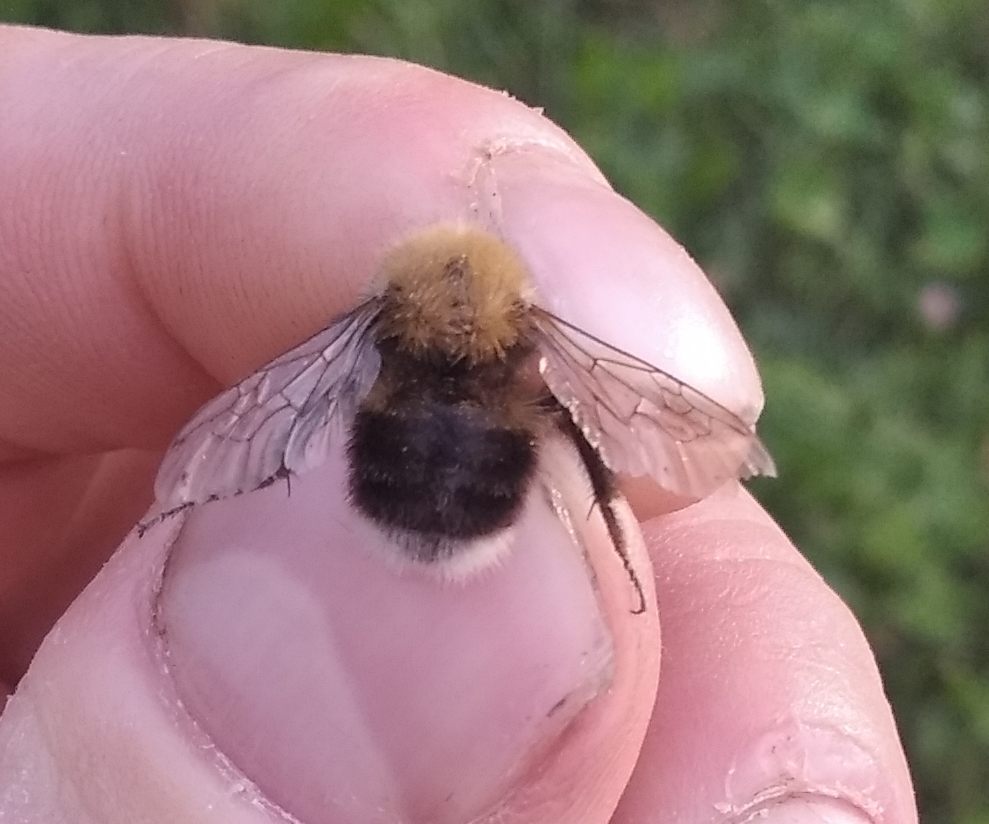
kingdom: Animalia
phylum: Arthropoda
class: Insecta
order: Hymenoptera
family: Apidae
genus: Bombus
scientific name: Bombus hypnorum
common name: New garden bumblebee
